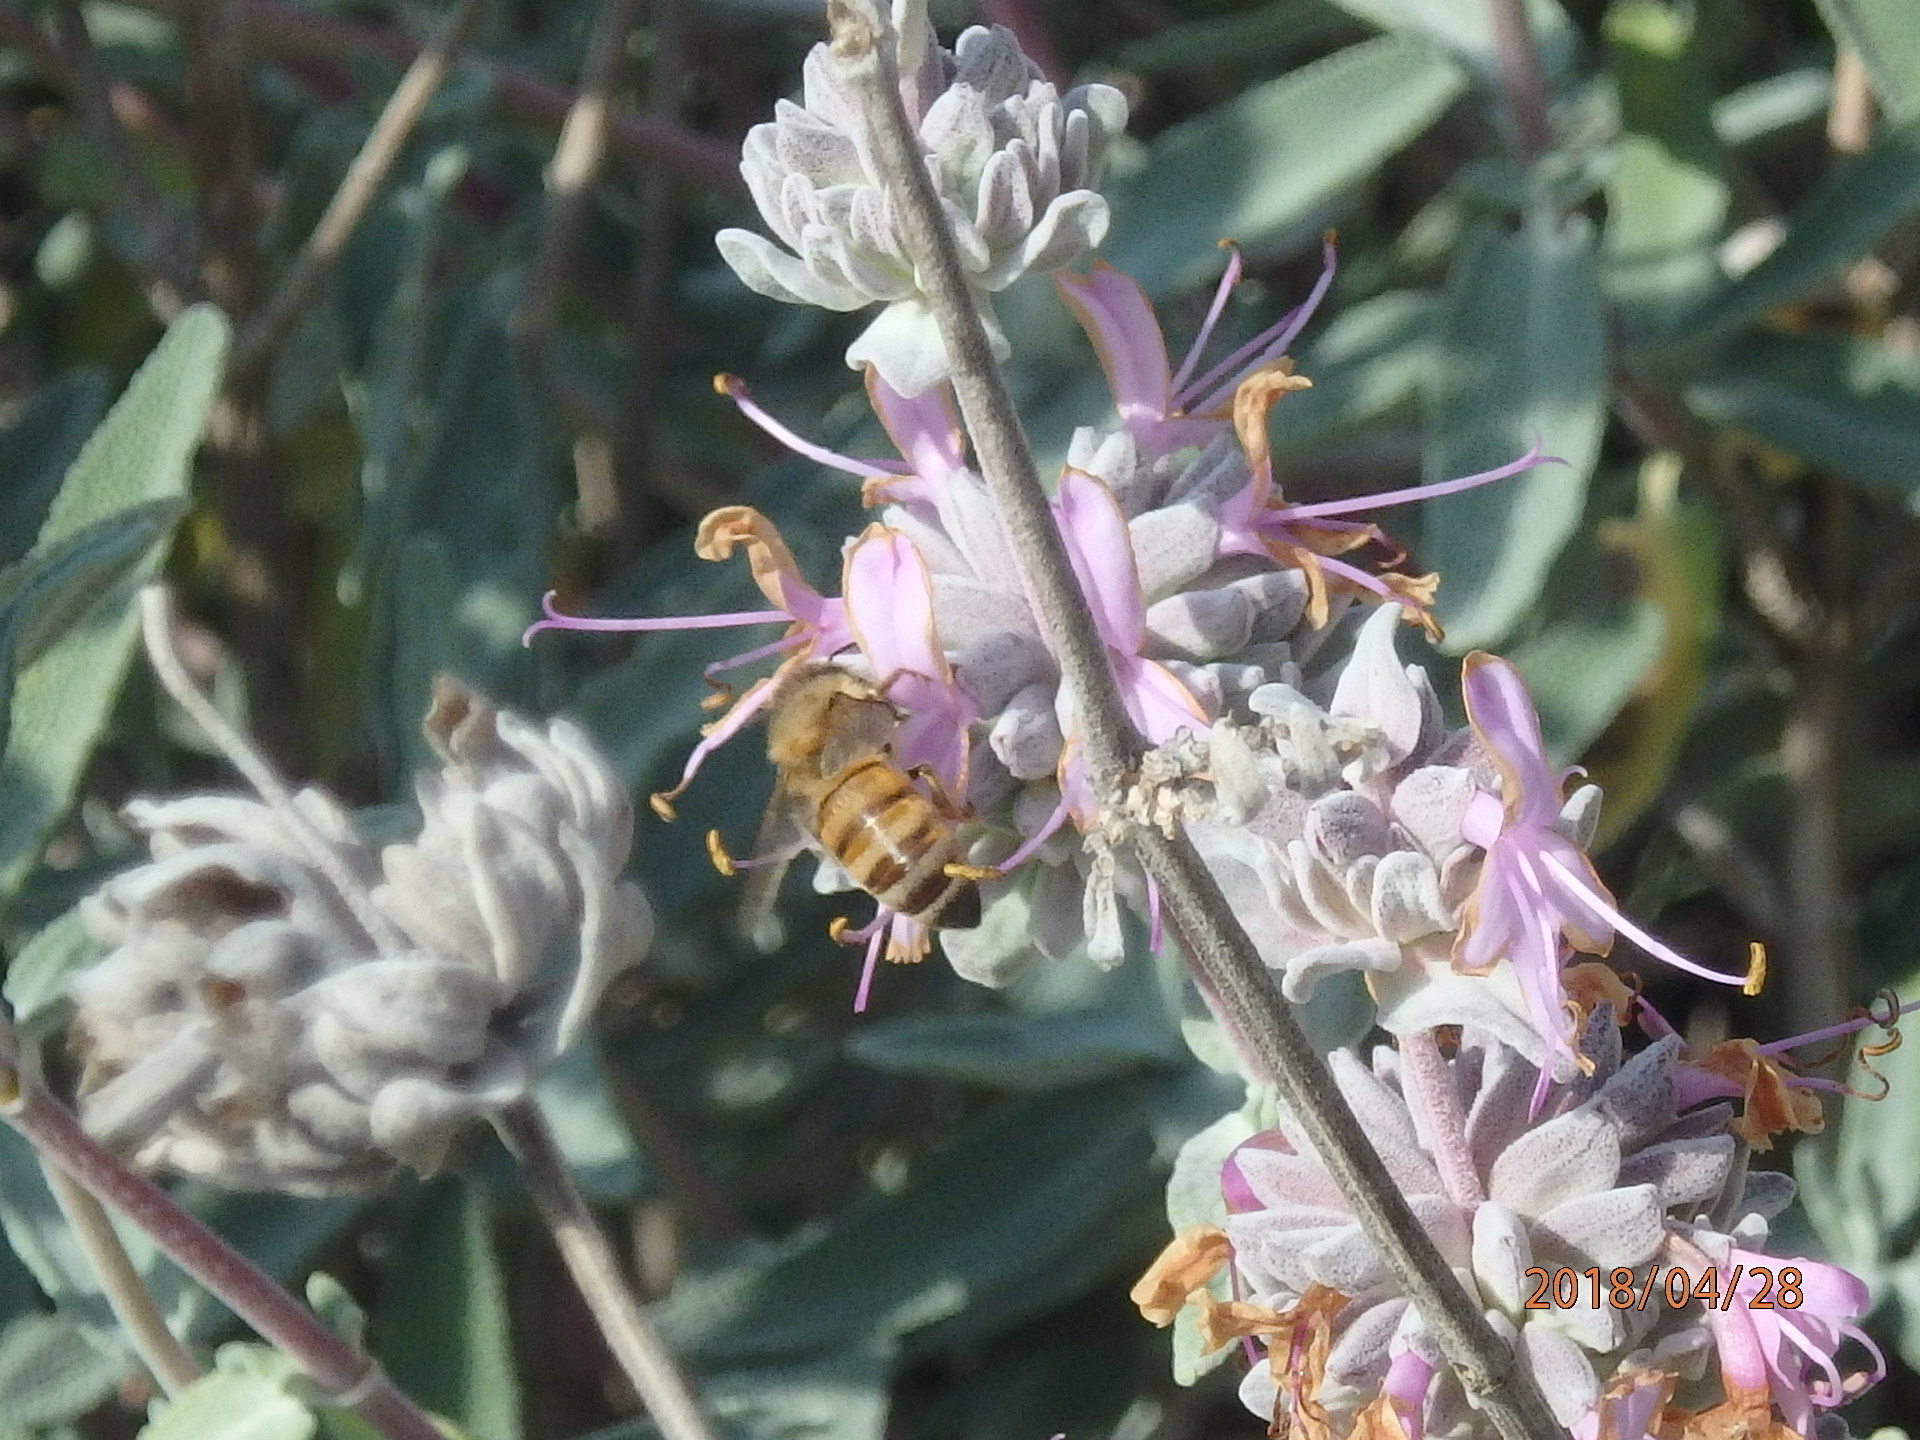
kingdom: Animalia
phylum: Arthropoda
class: Insecta
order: Hymenoptera
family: Apidae
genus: Apis
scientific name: Apis mellifera
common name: Honey bee
